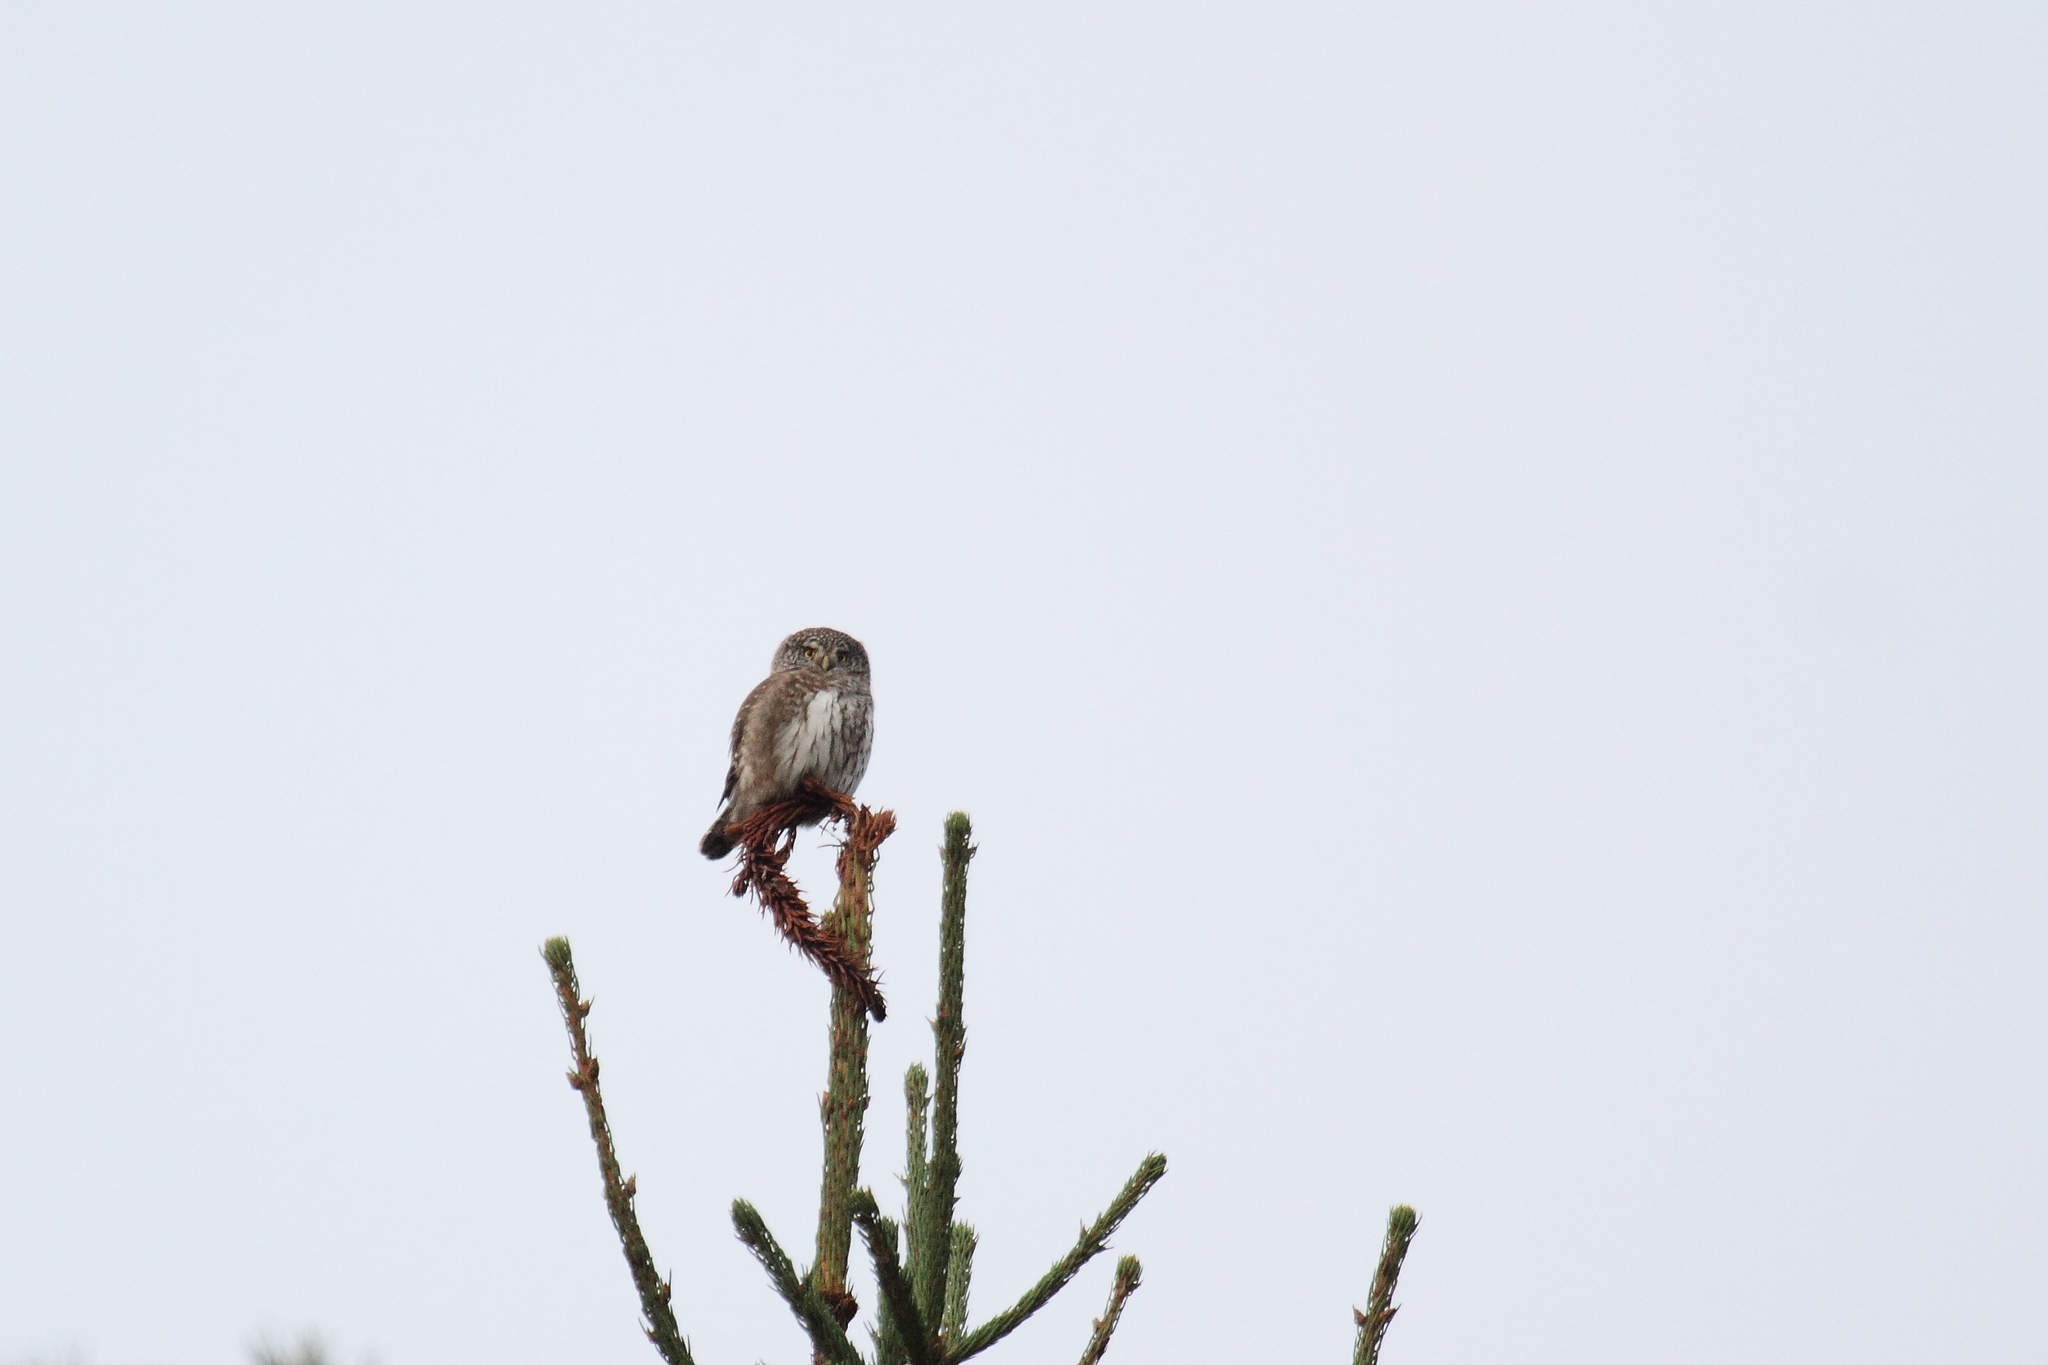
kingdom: Animalia
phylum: Chordata
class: Aves
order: Strigiformes
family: Strigidae
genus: Glaucidium
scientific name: Glaucidium passerinum
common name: Eurasian pygmy owl
